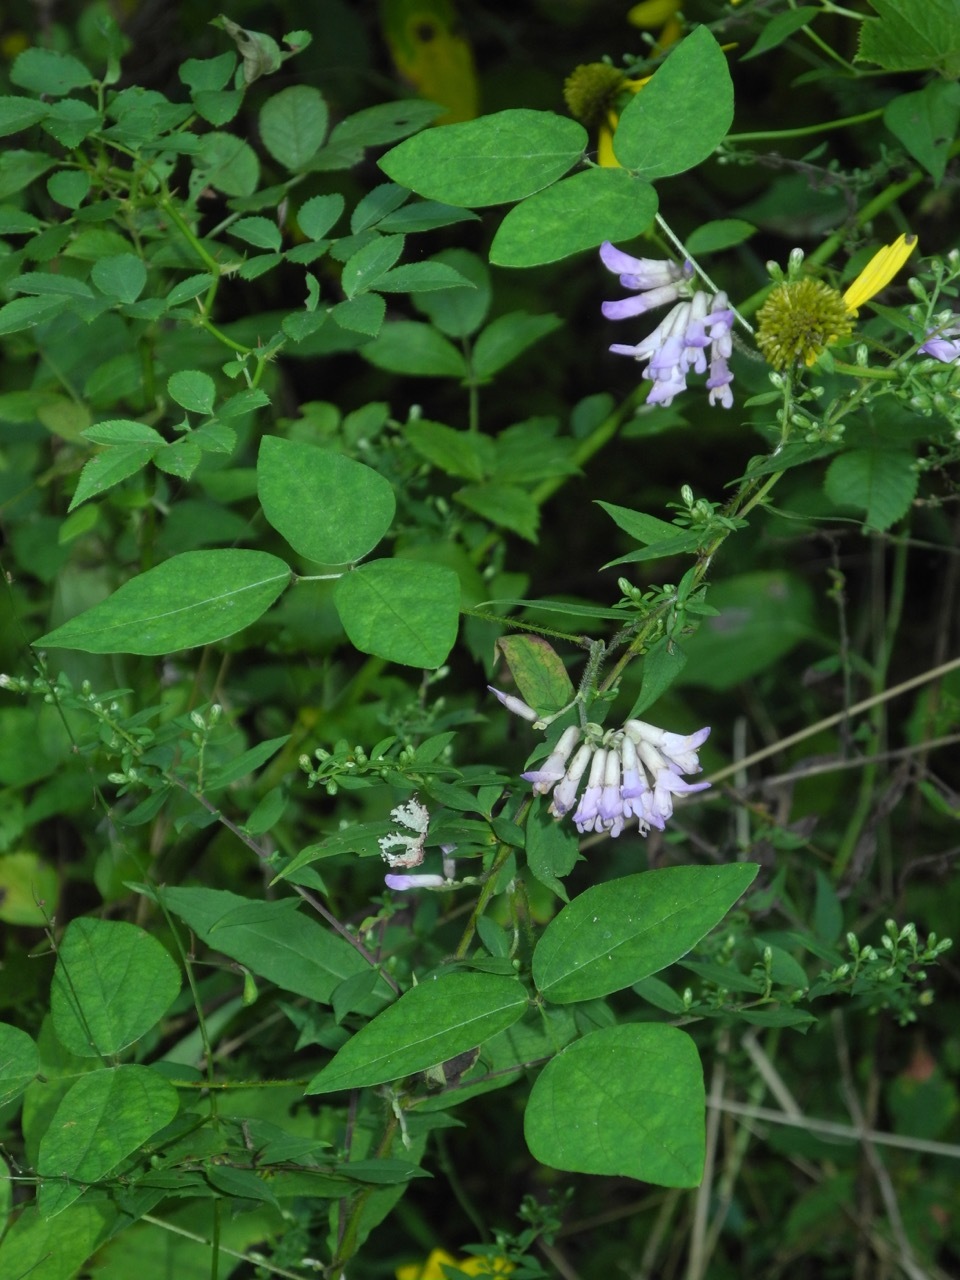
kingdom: Plantae
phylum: Tracheophyta
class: Magnoliopsida
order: Fabales
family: Fabaceae
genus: Amphicarpaea
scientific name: Amphicarpaea bracteata
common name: American hog peanut
